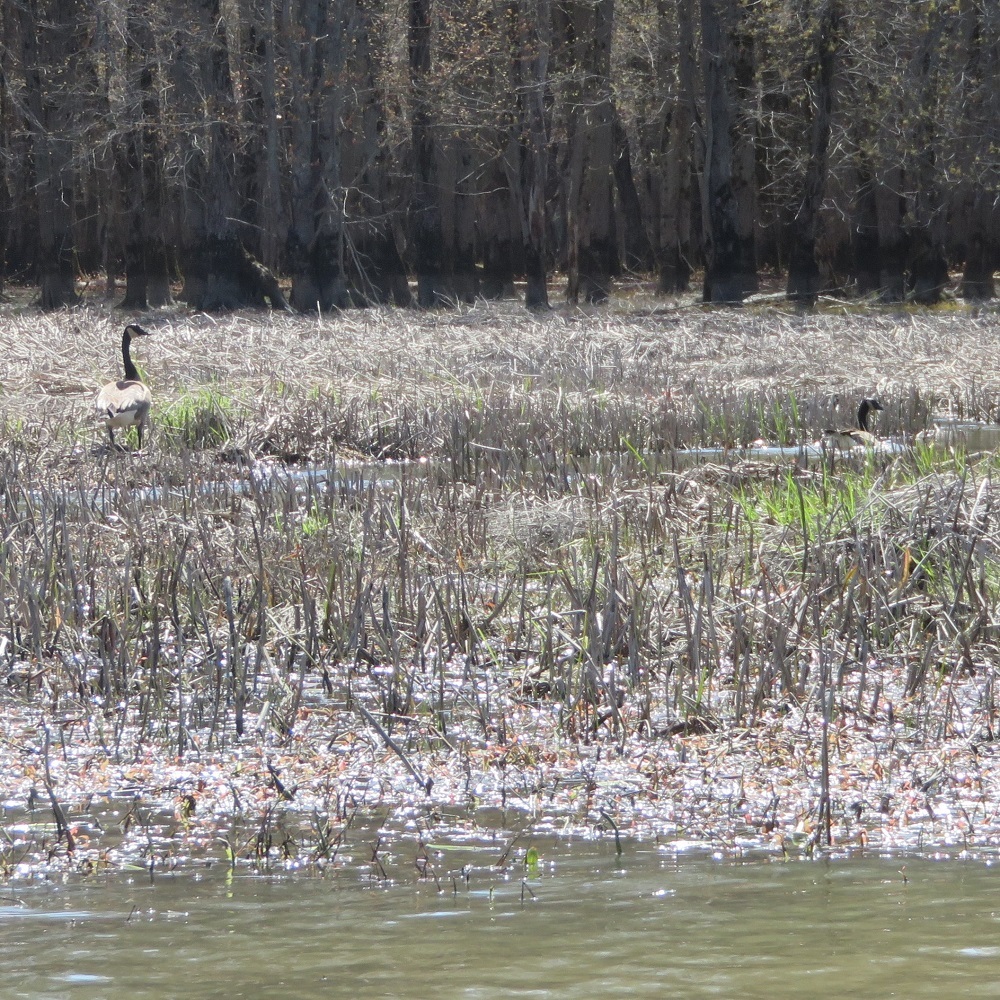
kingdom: Animalia
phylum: Chordata
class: Aves
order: Anseriformes
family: Anatidae
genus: Branta
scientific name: Branta canadensis
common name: Canada goose
